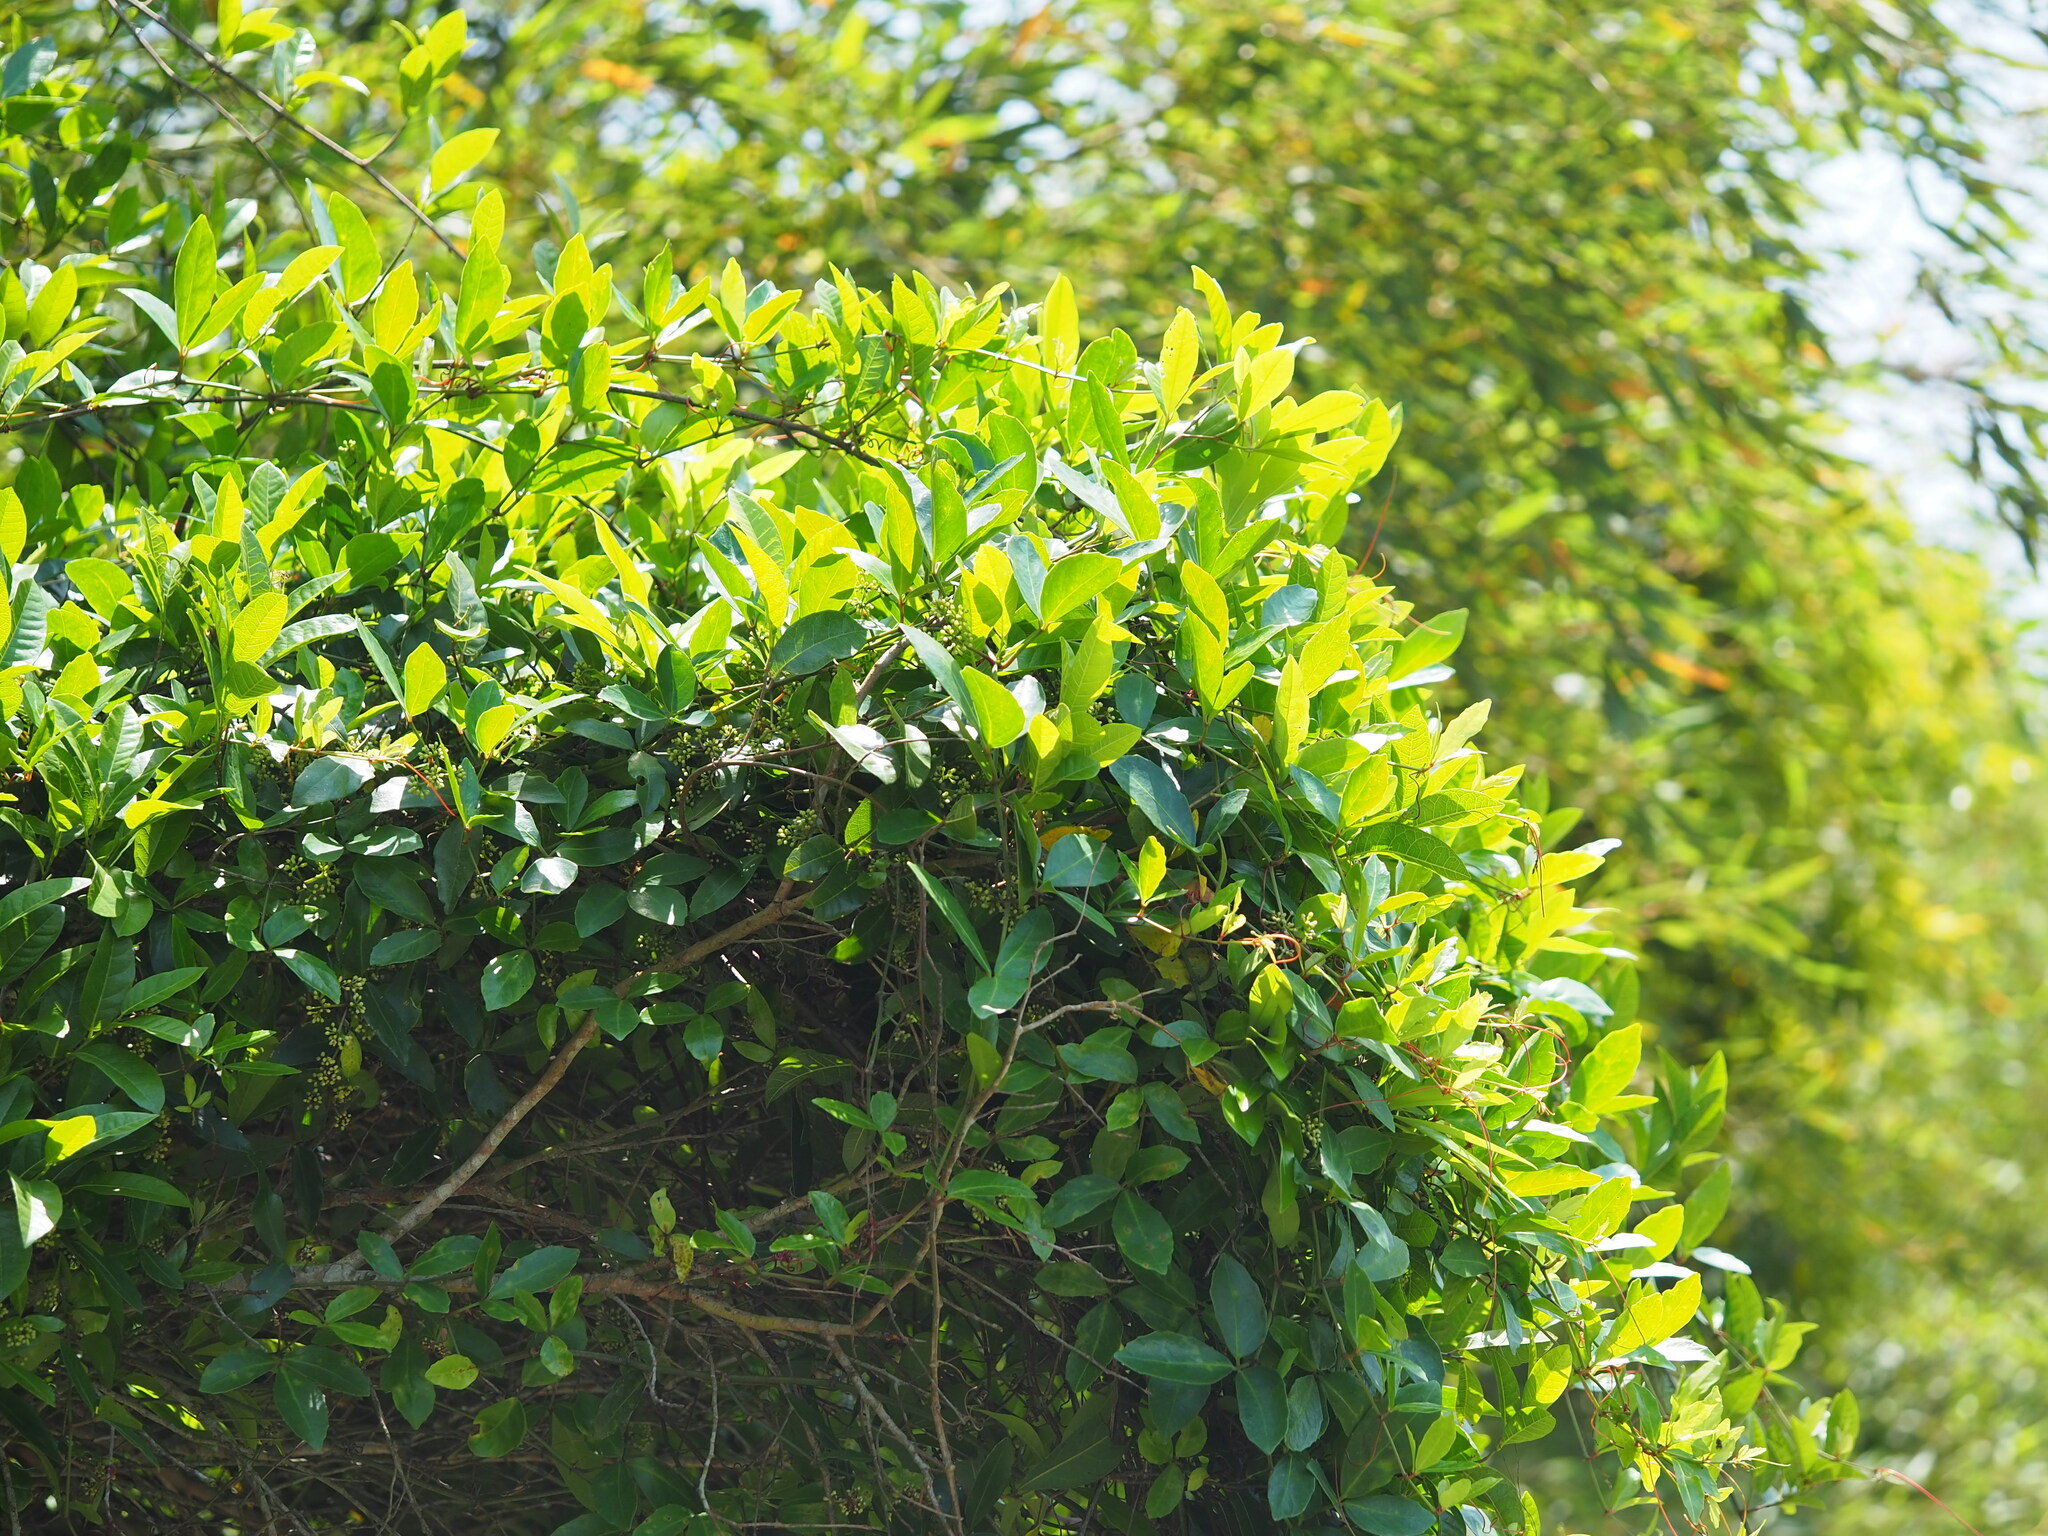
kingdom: Plantae
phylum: Tracheophyta
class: Magnoliopsida
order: Vitales
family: Vitaceae
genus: Tetrastigma
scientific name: Tetrastigma formosanum
